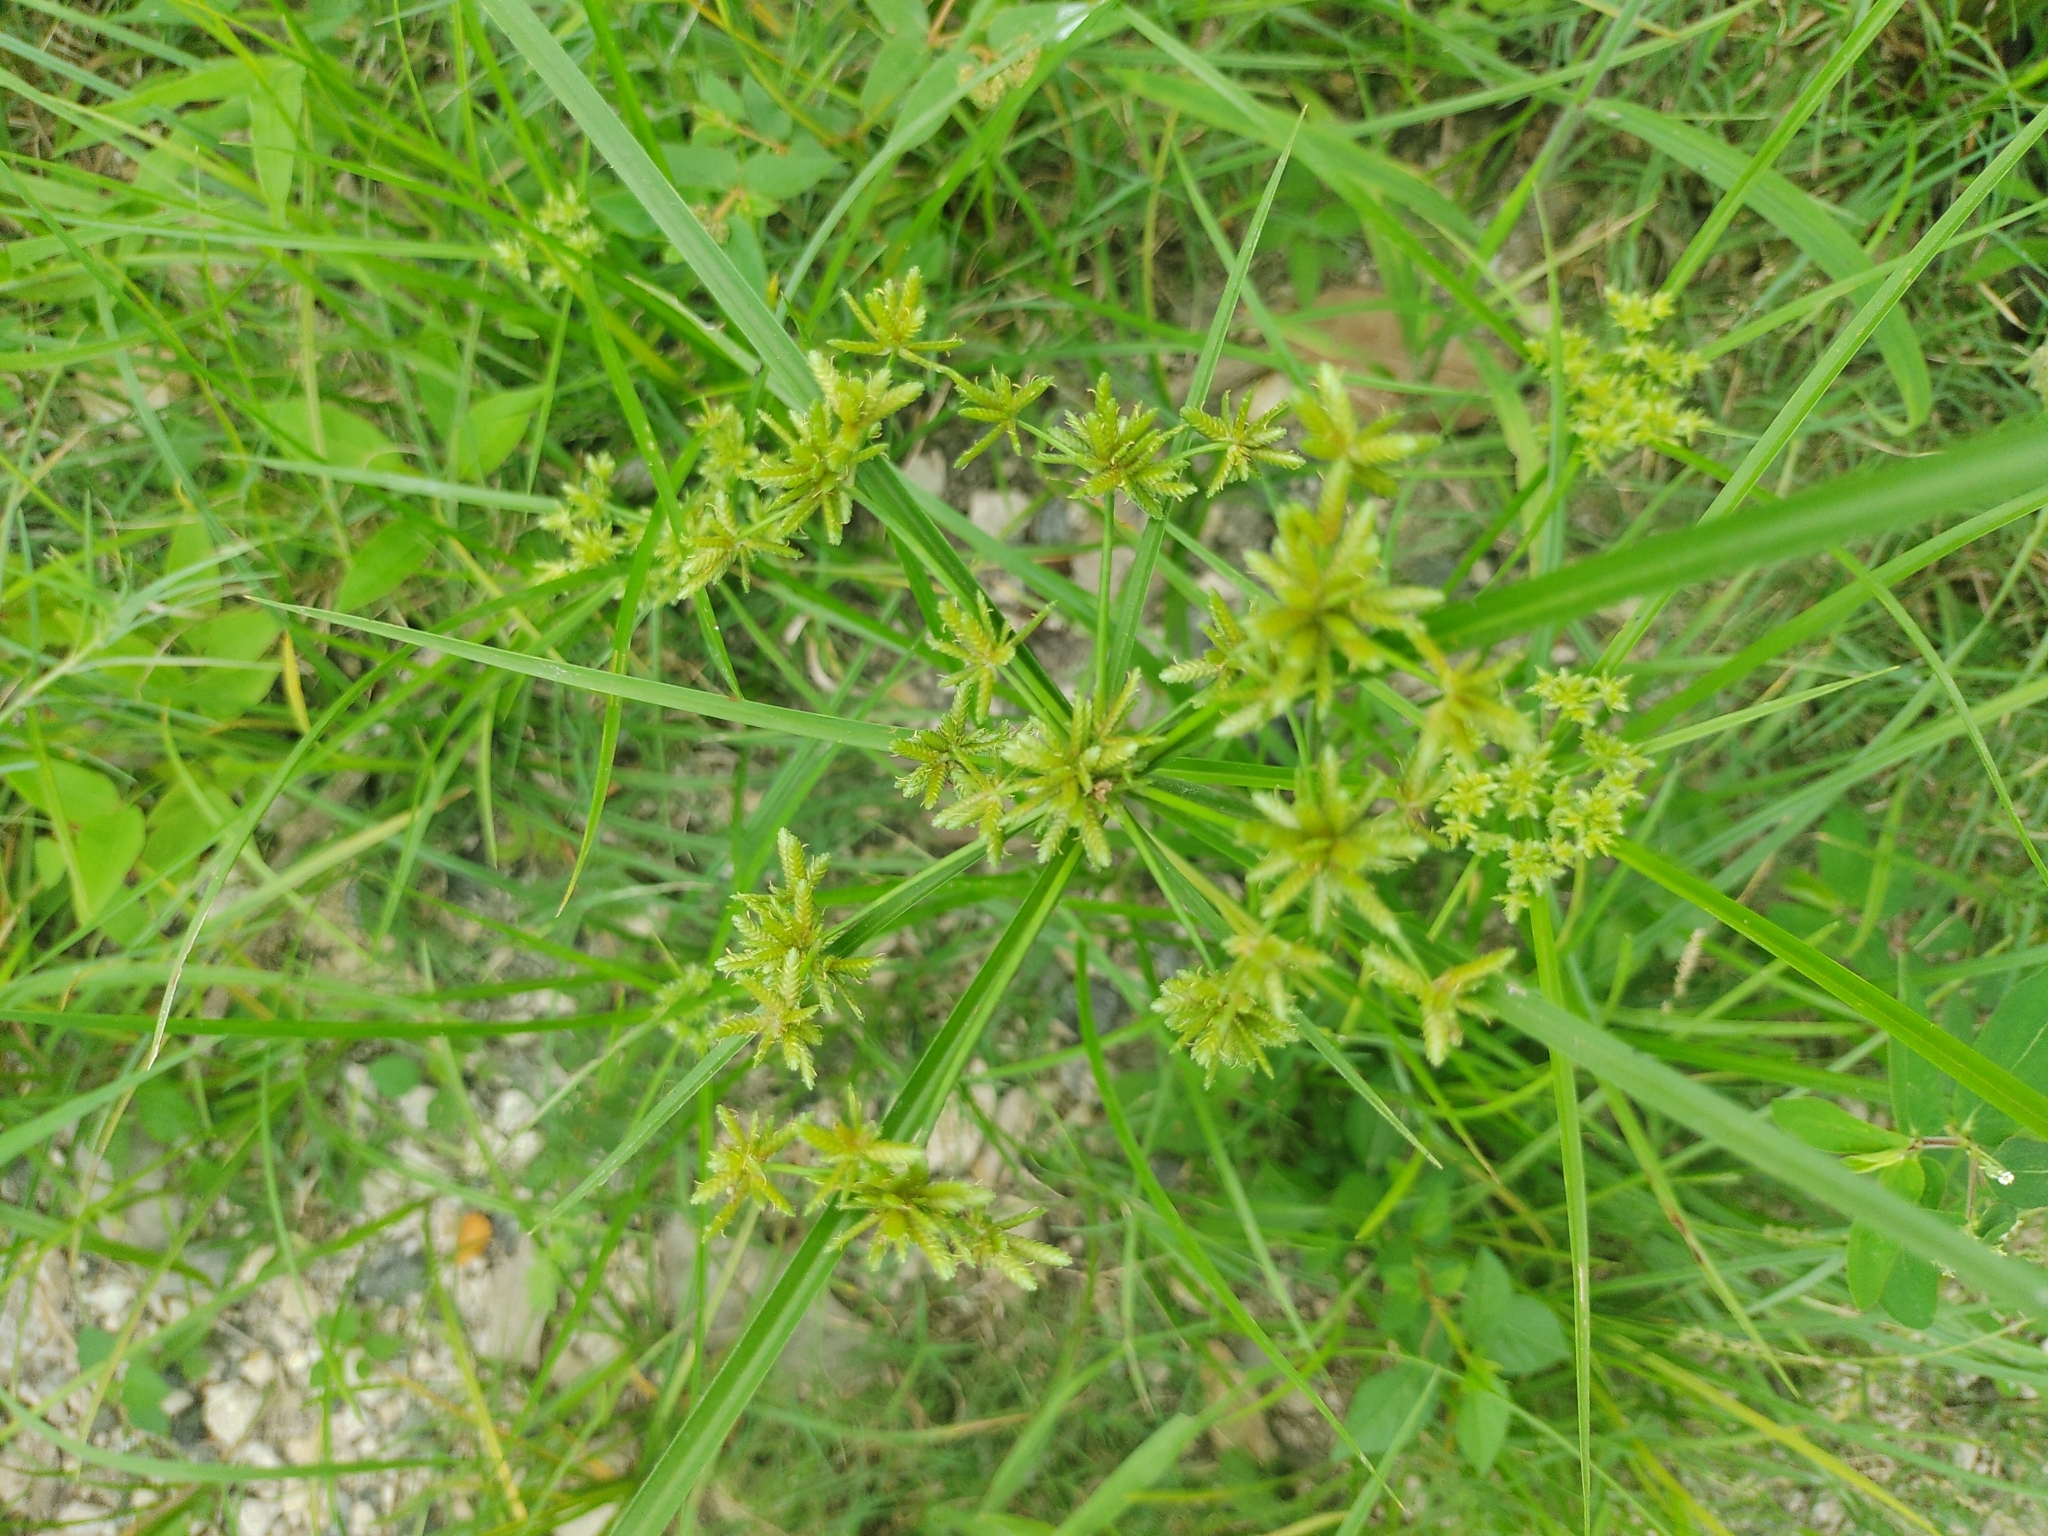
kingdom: Plantae
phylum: Tracheophyta
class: Liliopsida
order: Poales
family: Cyperaceae
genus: Cyperus
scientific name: Cyperus ochraceus
